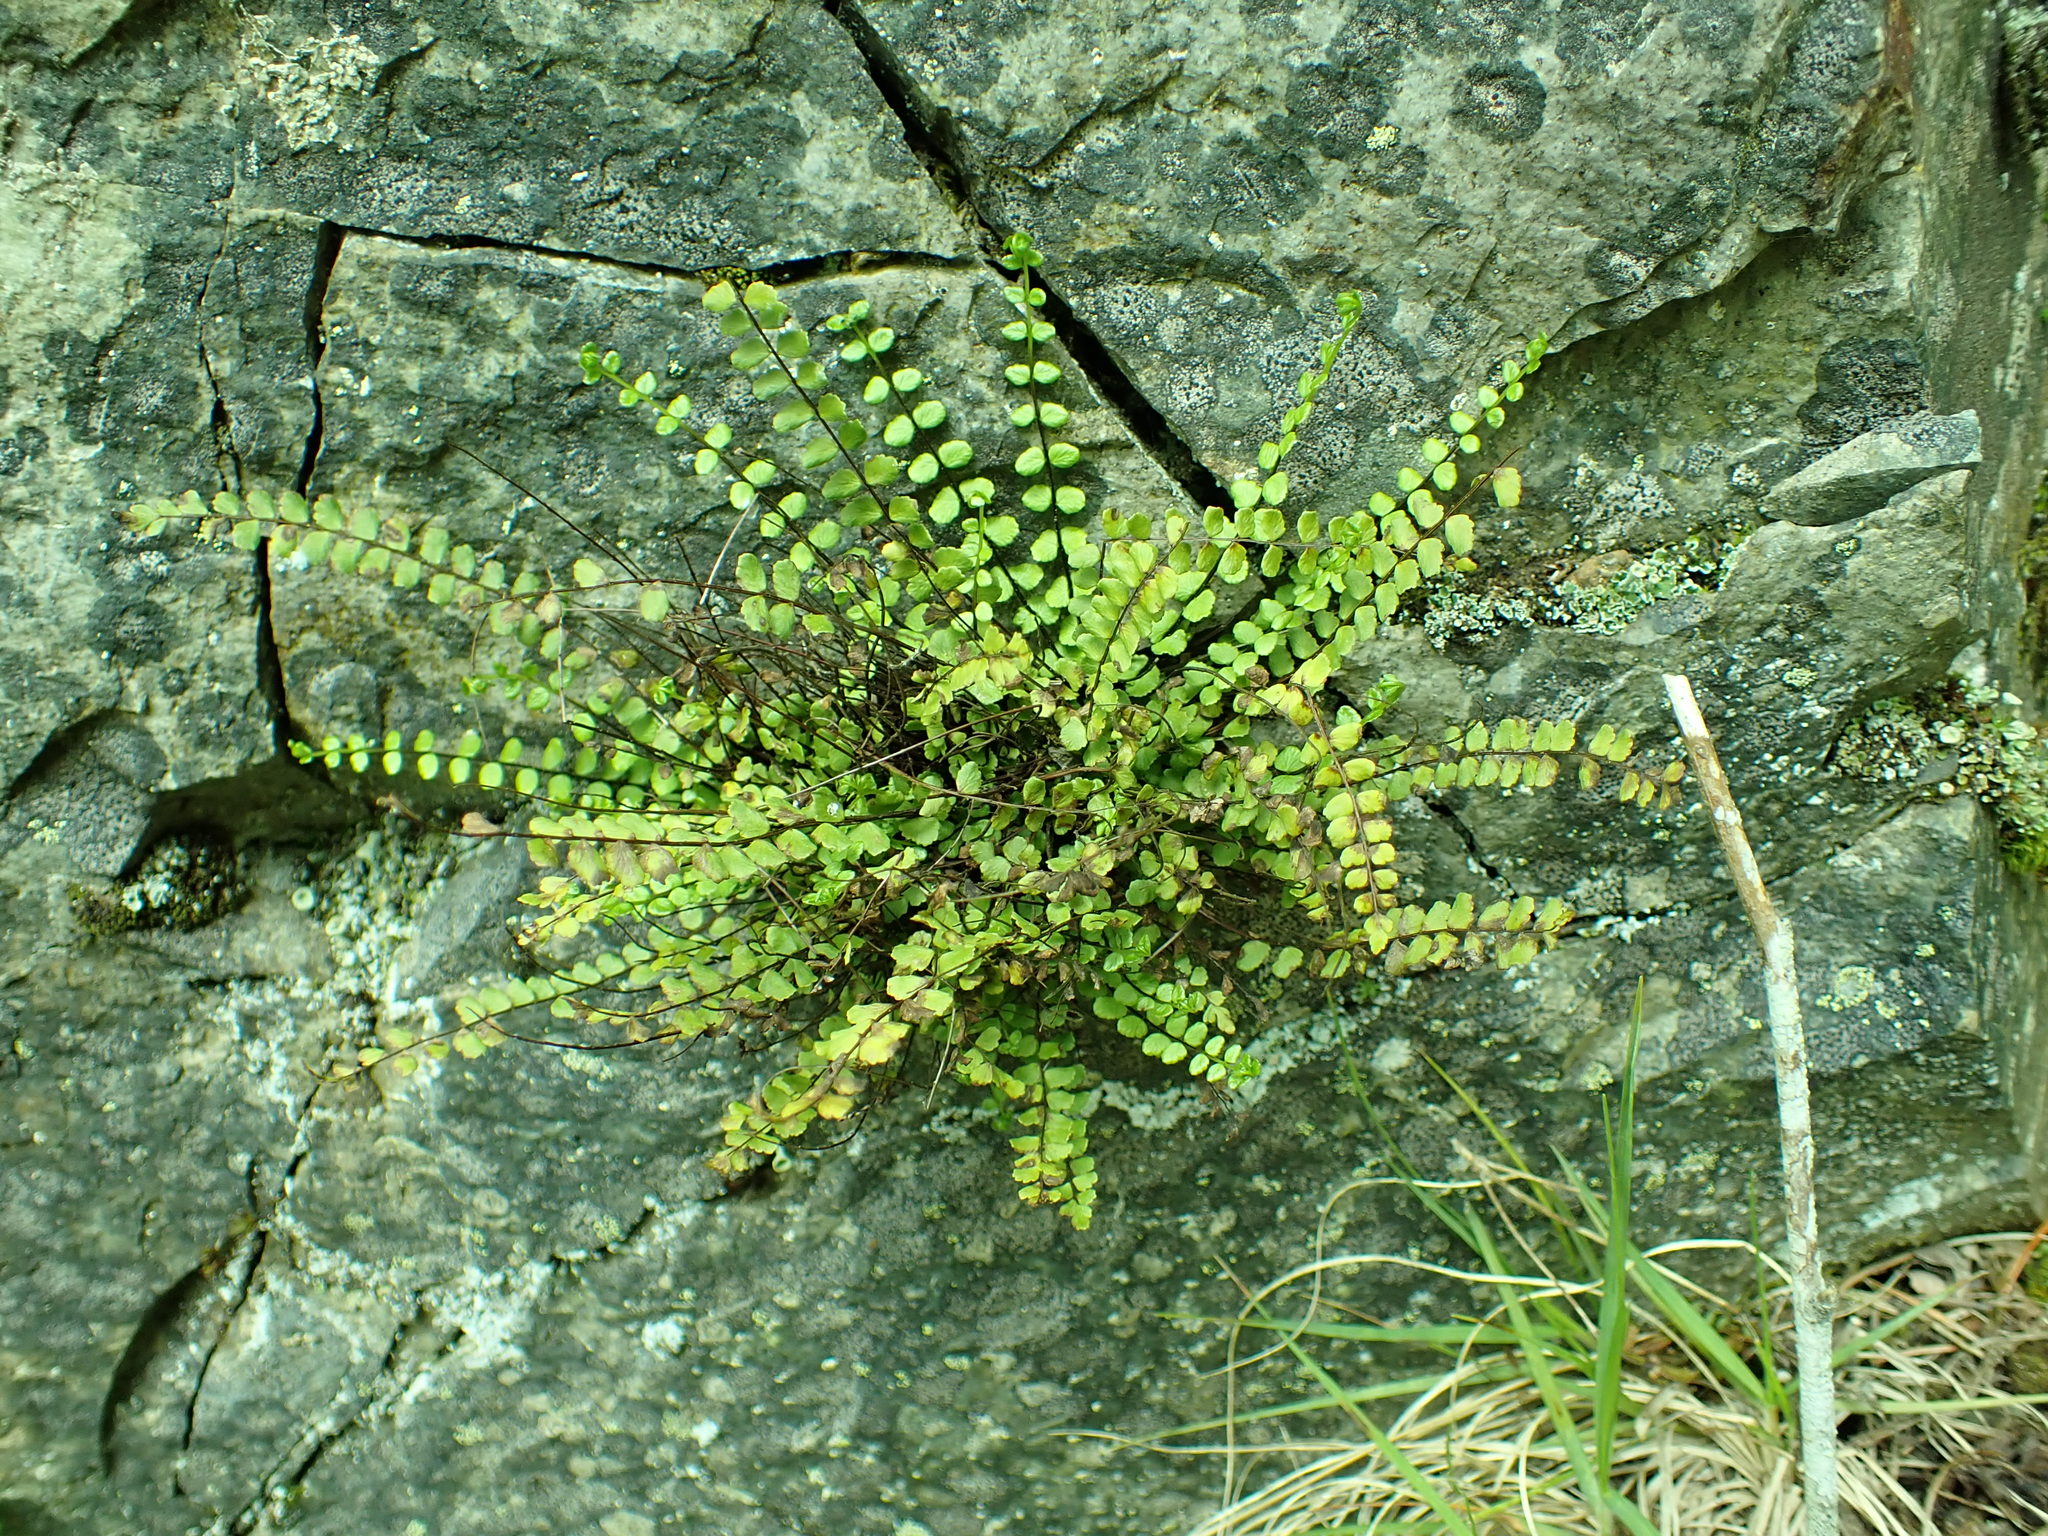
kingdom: Plantae
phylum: Tracheophyta
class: Polypodiopsida
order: Polypodiales
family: Aspleniaceae
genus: Asplenium
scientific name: Asplenium trichomanes
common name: Maidenhair spleenwort
